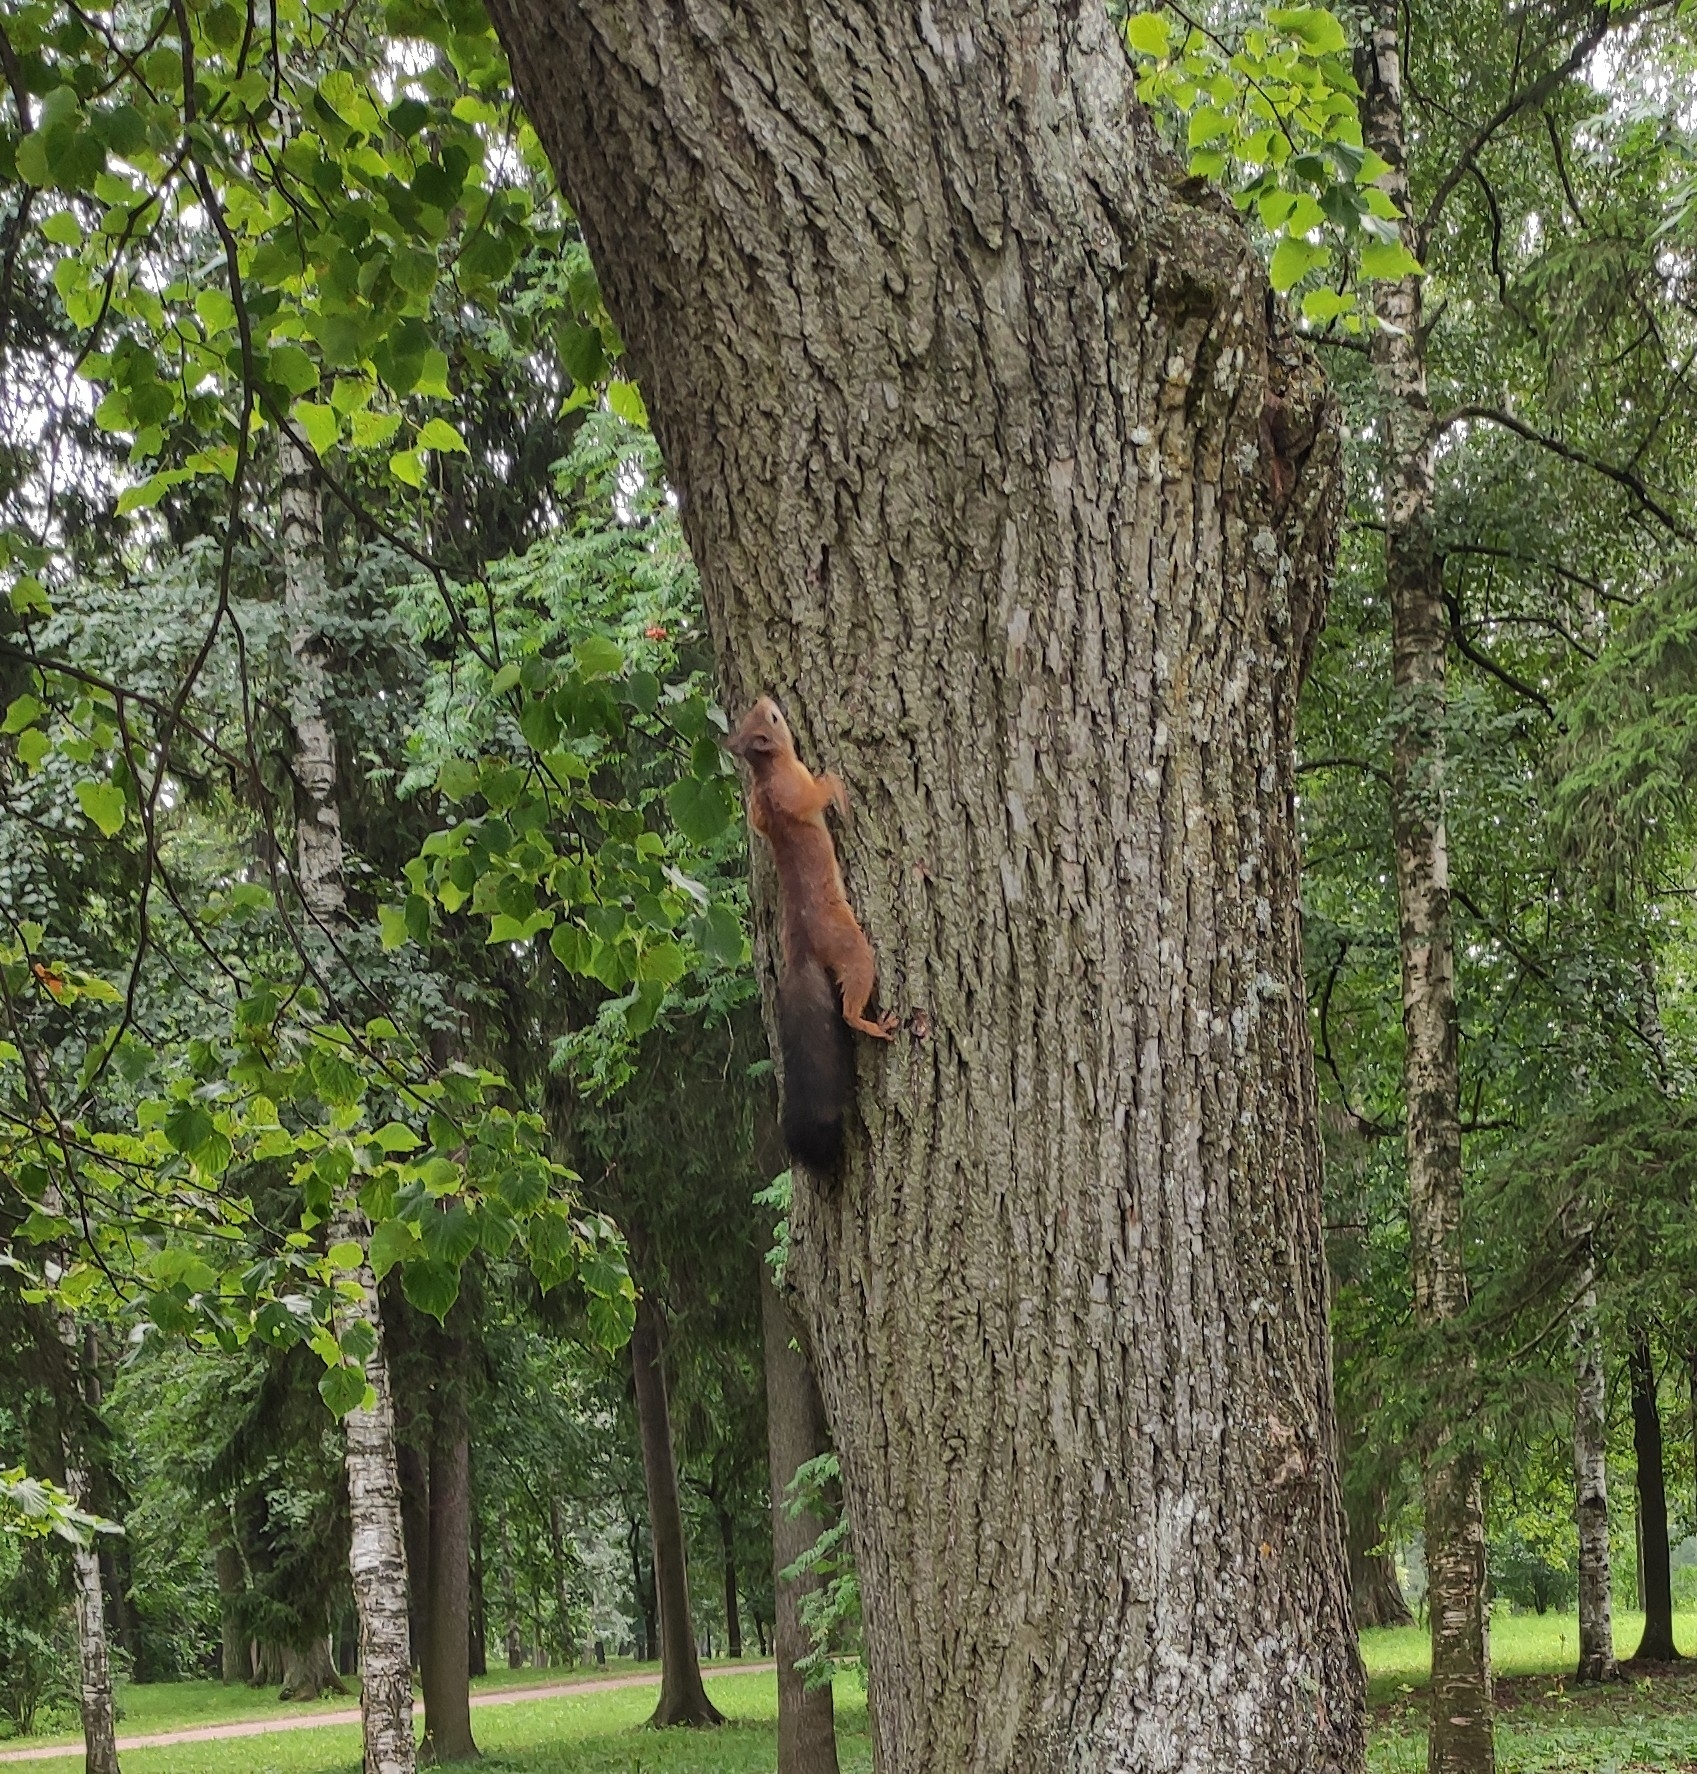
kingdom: Animalia
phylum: Chordata
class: Mammalia
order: Rodentia
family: Sciuridae
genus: Sciurus
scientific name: Sciurus vulgaris
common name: Eurasian red squirrel
